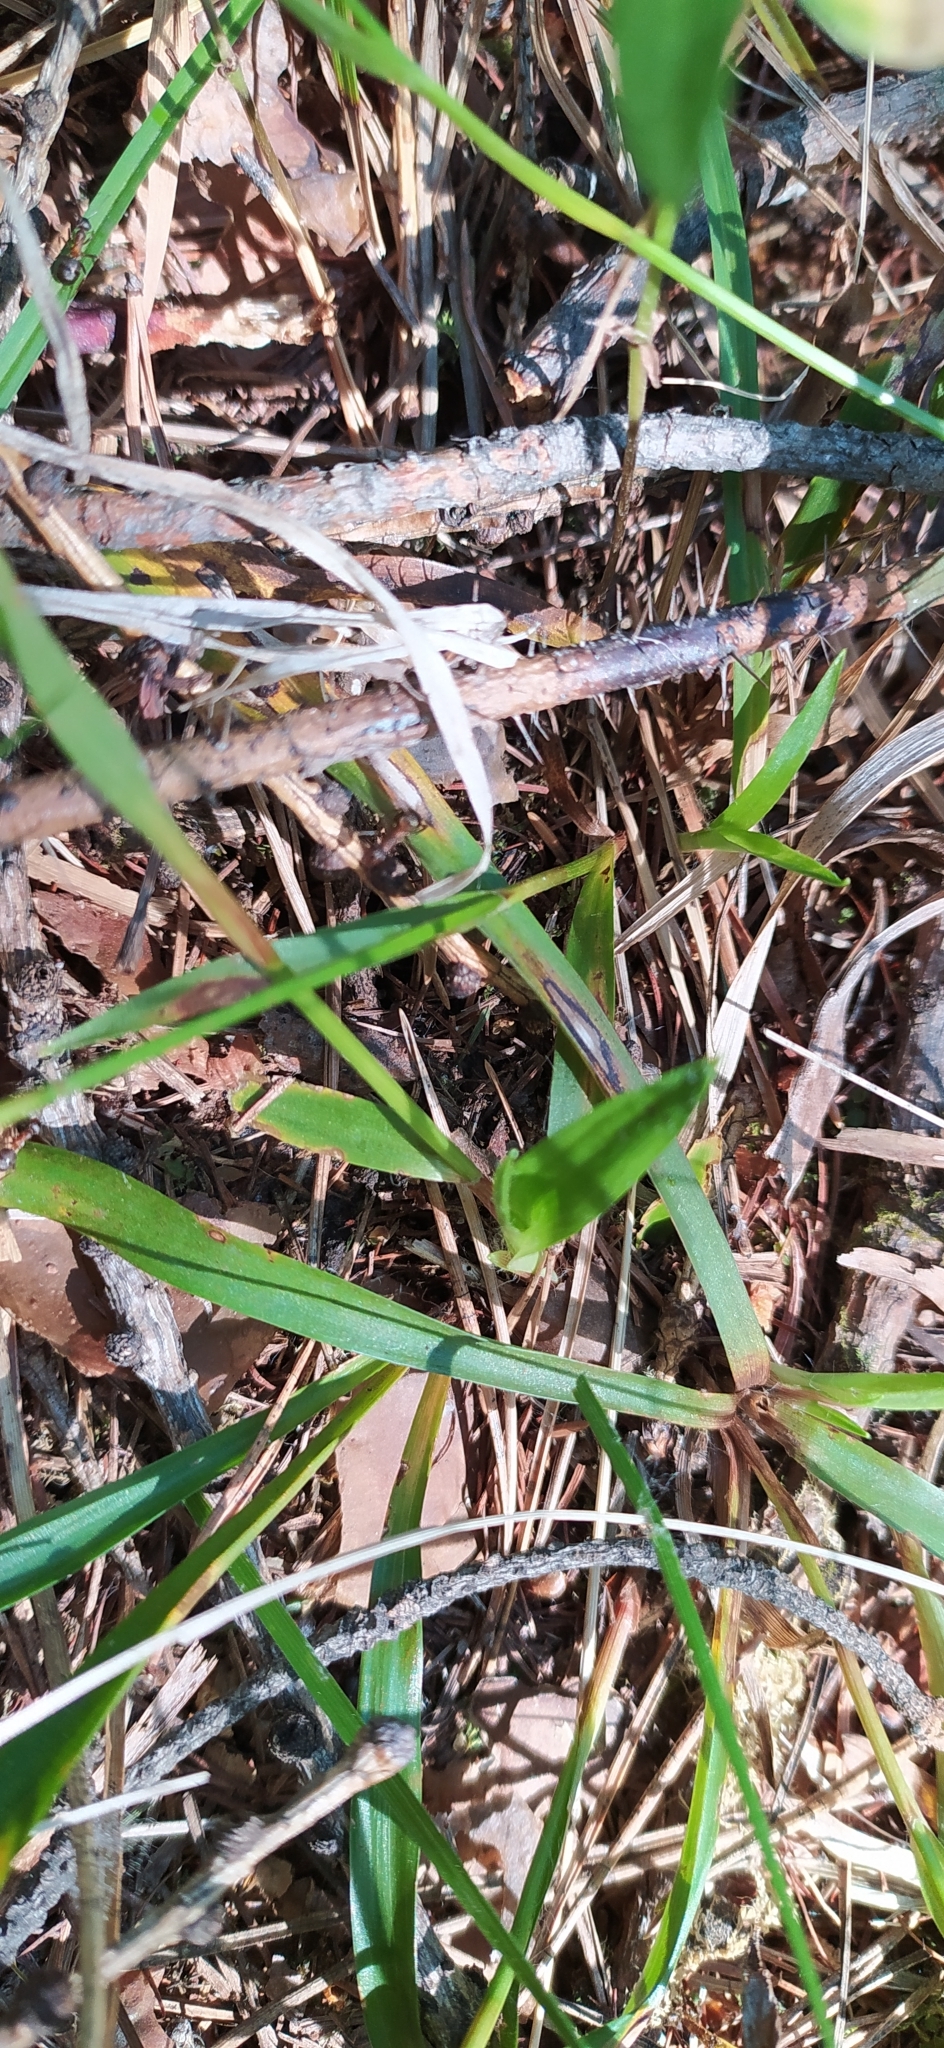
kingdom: Plantae
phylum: Tracheophyta
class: Liliopsida
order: Poales
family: Juncaceae
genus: Luzula
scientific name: Luzula pilosa
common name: Hairy wood-rush
